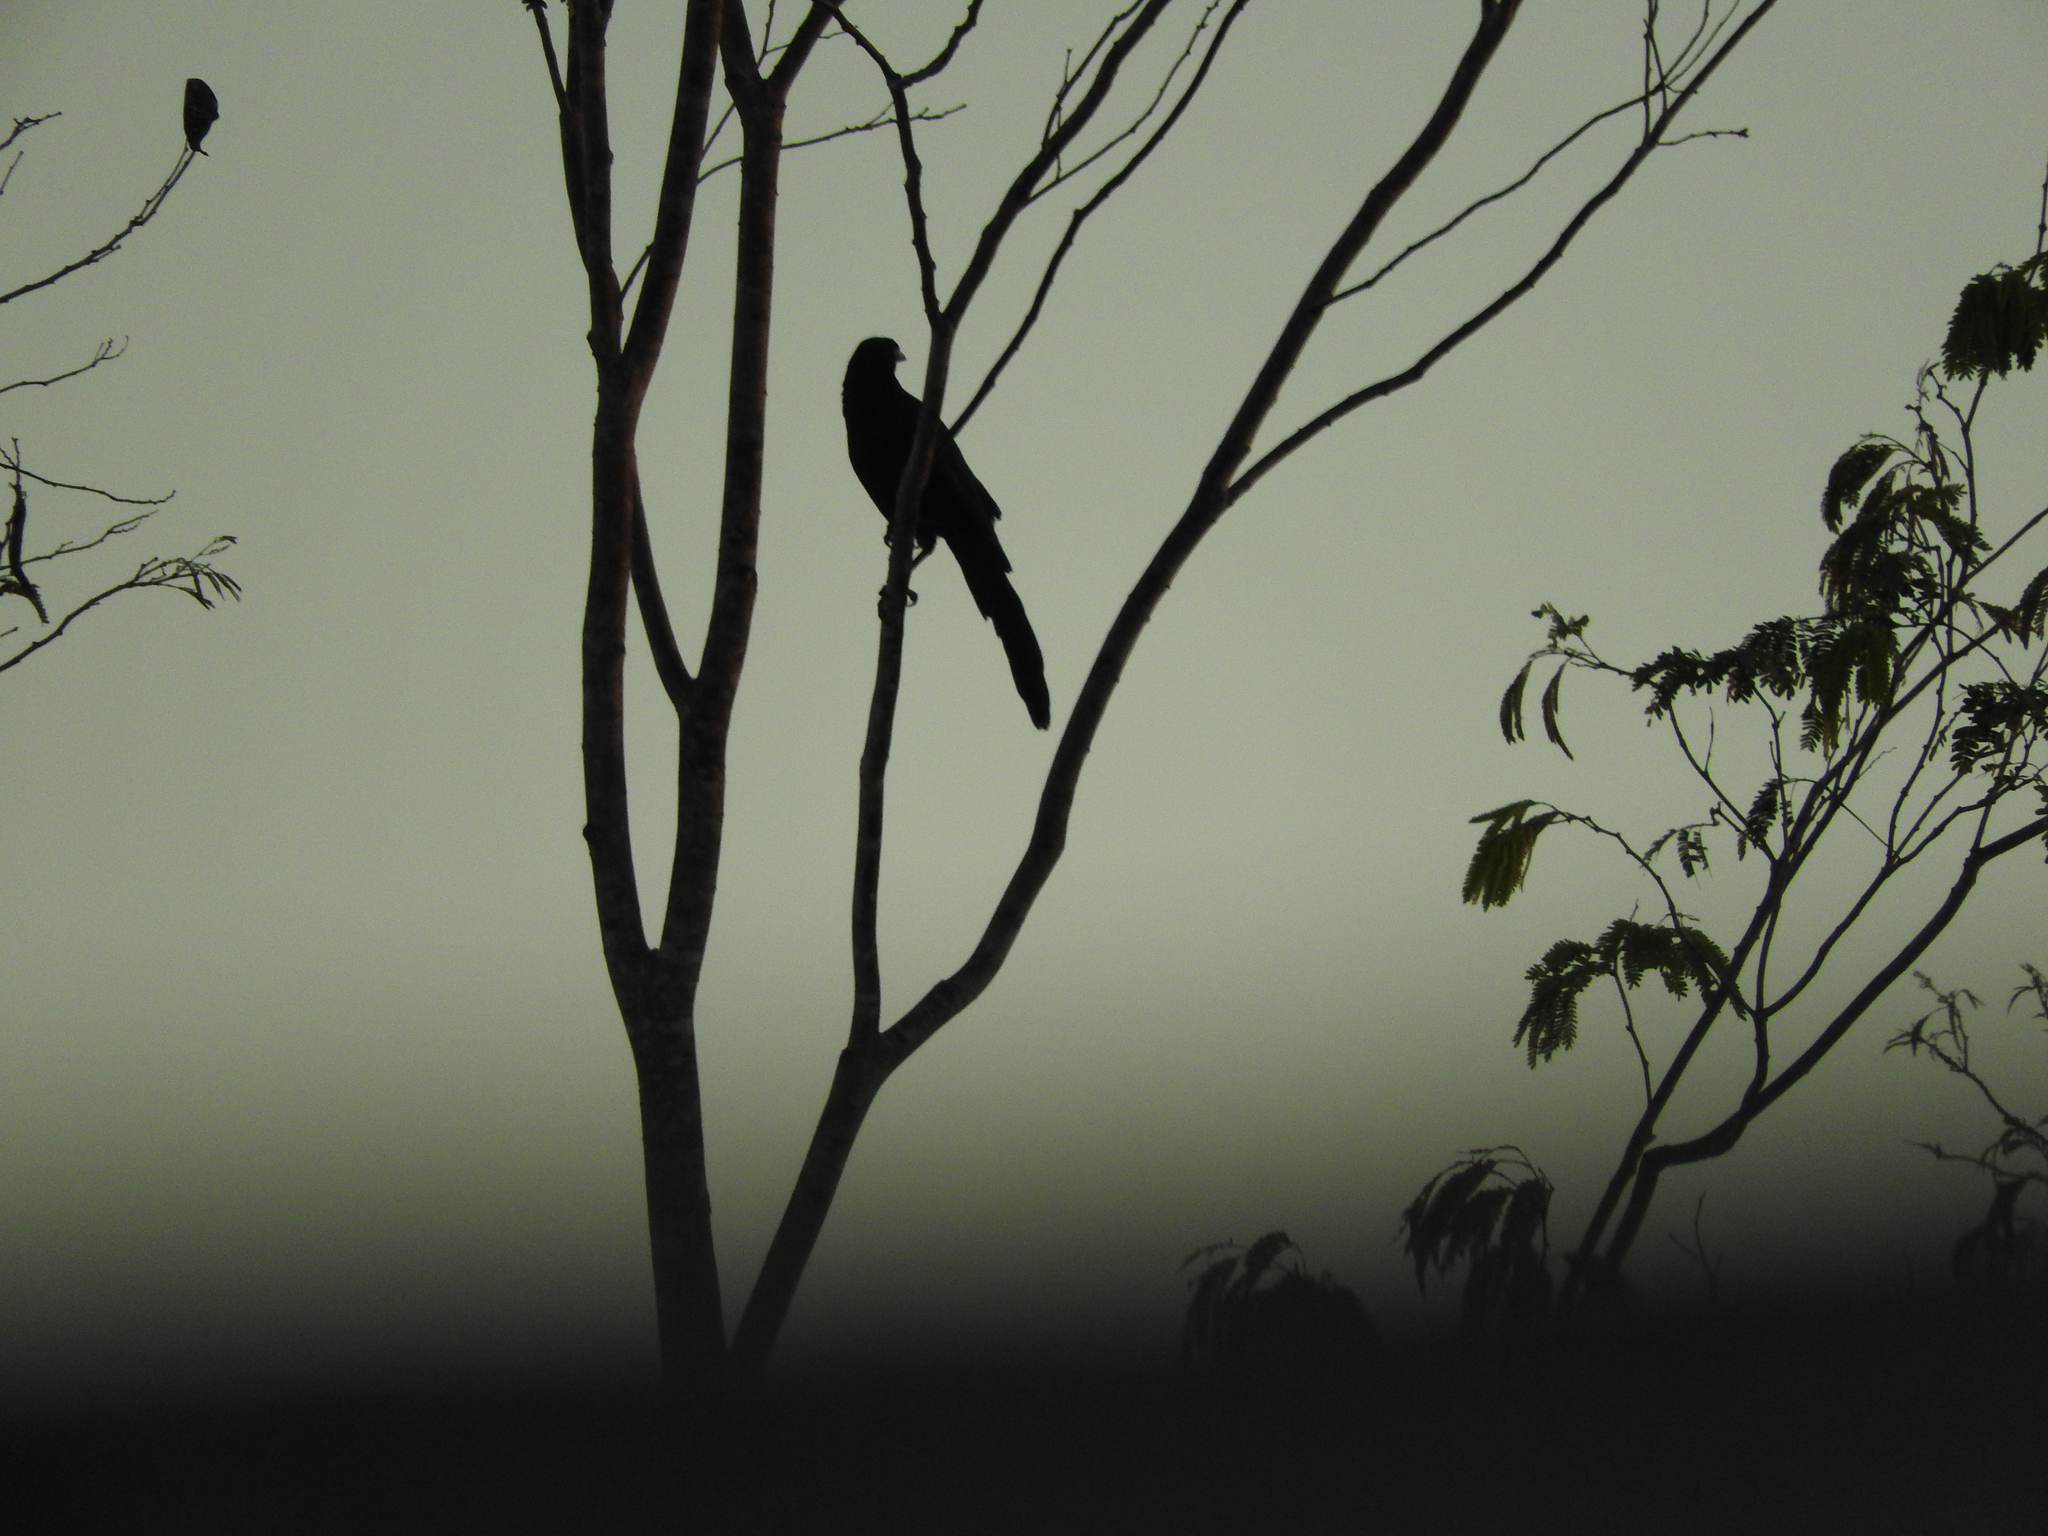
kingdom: Animalia
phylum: Chordata
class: Aves
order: Passeriformes
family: Icteridae
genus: Quiscalus
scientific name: Quiscalus mexicanus
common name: Great-tailed grackle
